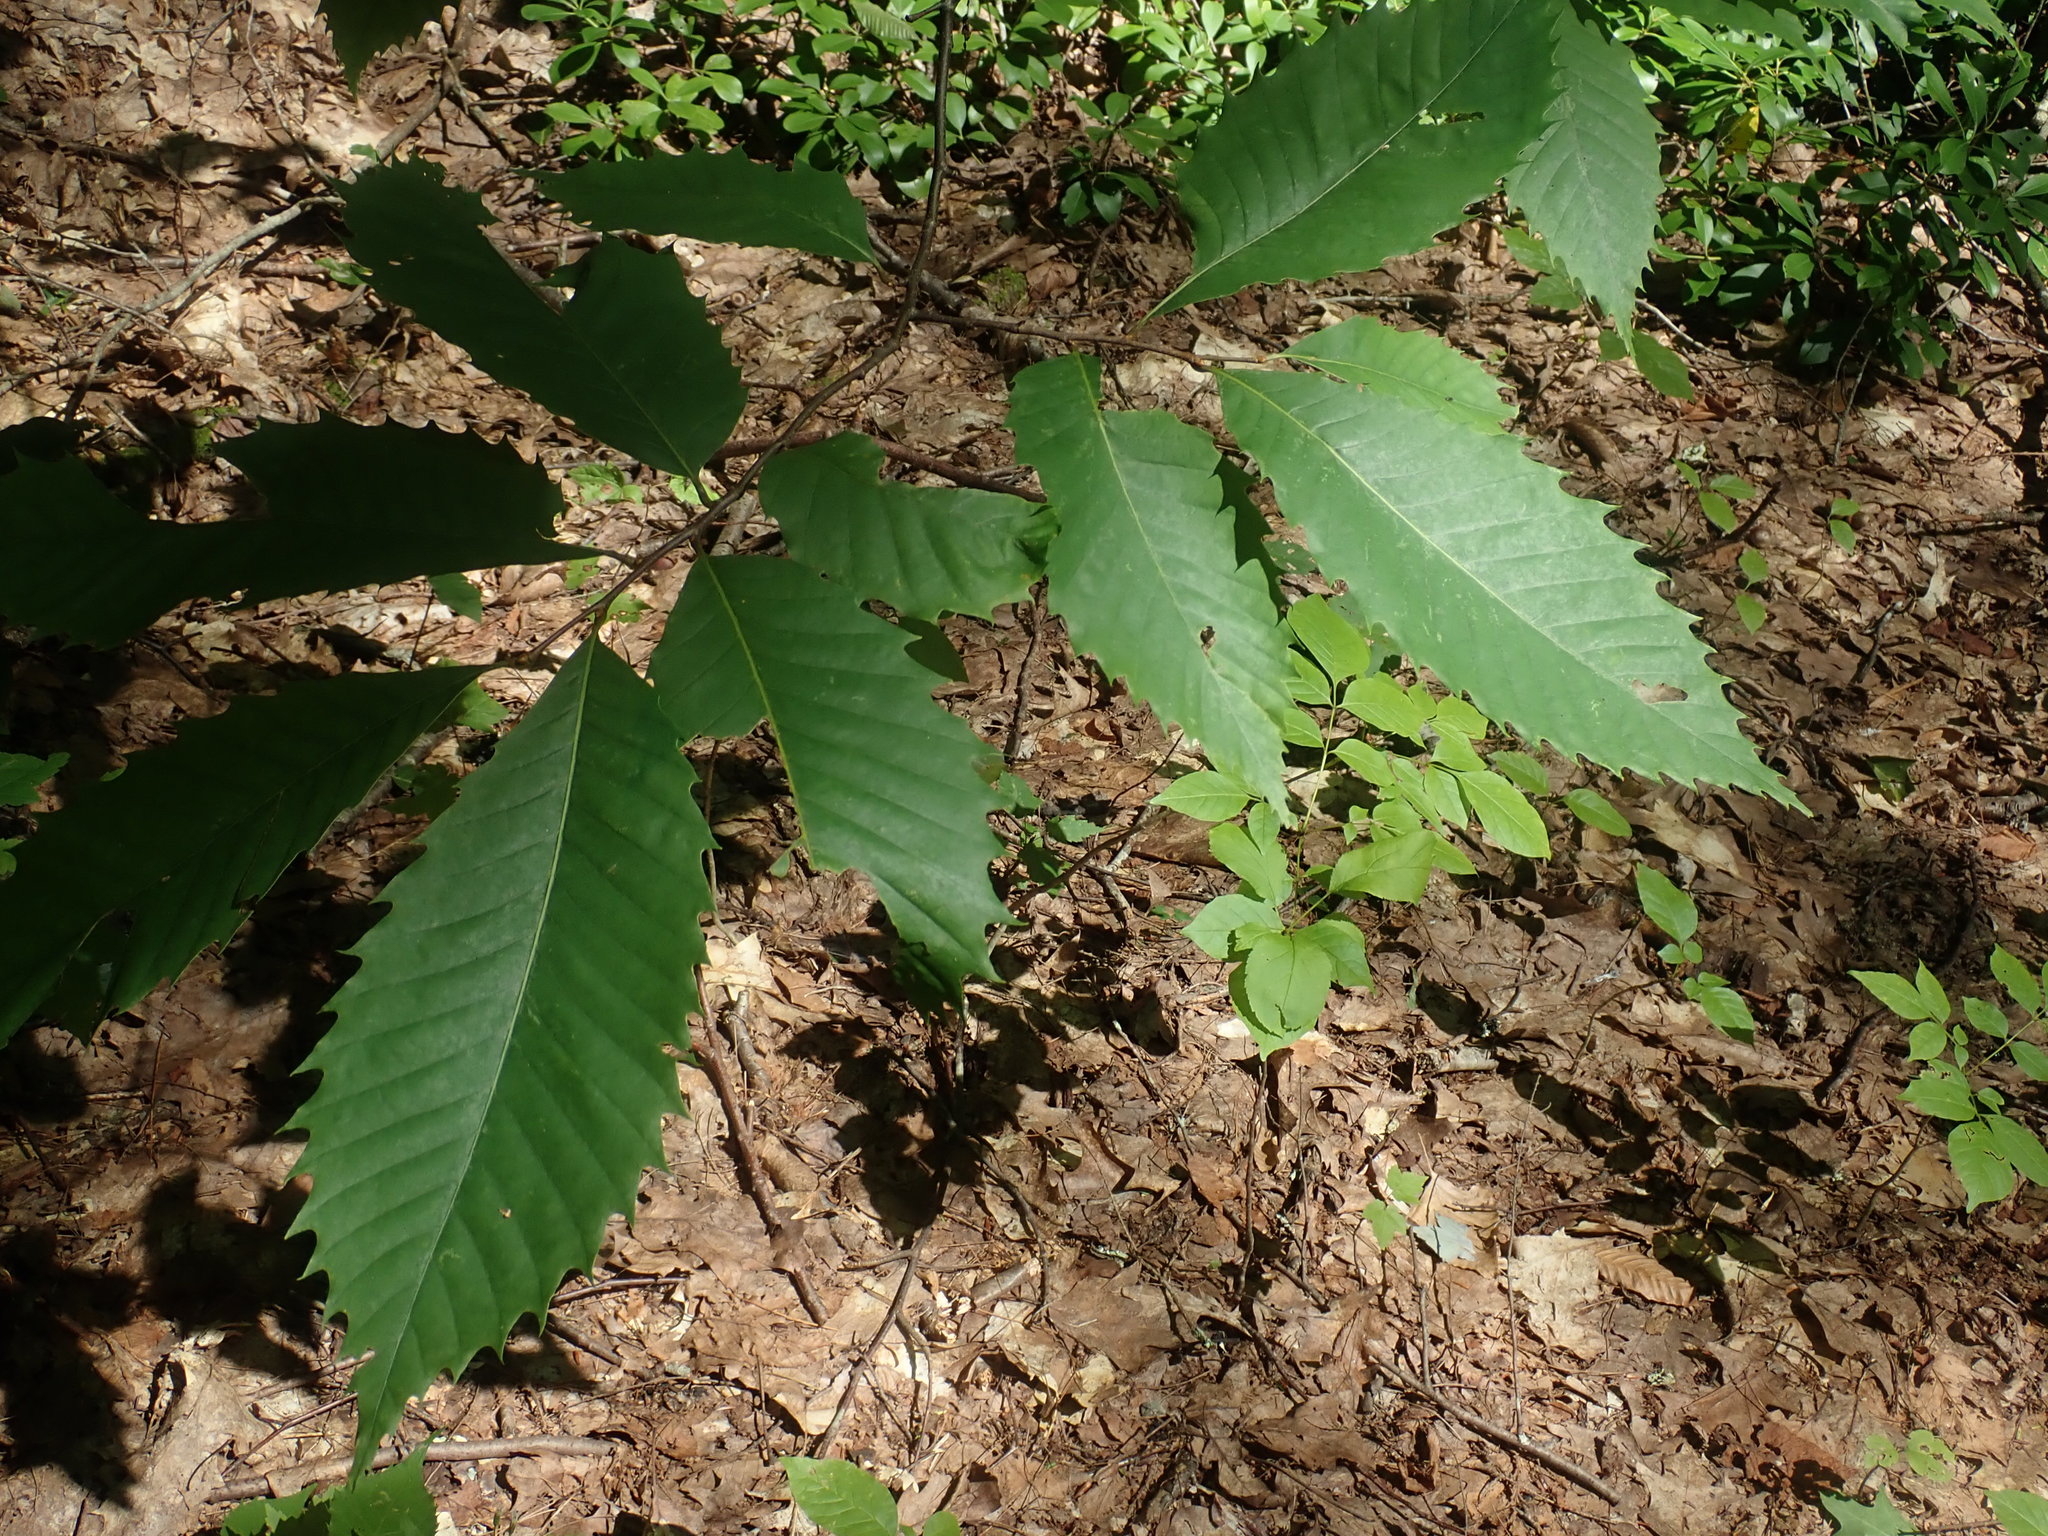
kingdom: Plantae
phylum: Tracheophyta
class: Magnoliopsida
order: Fagales
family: Fagaceae
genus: Castanea
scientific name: Castanea dentata
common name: American chestnut
